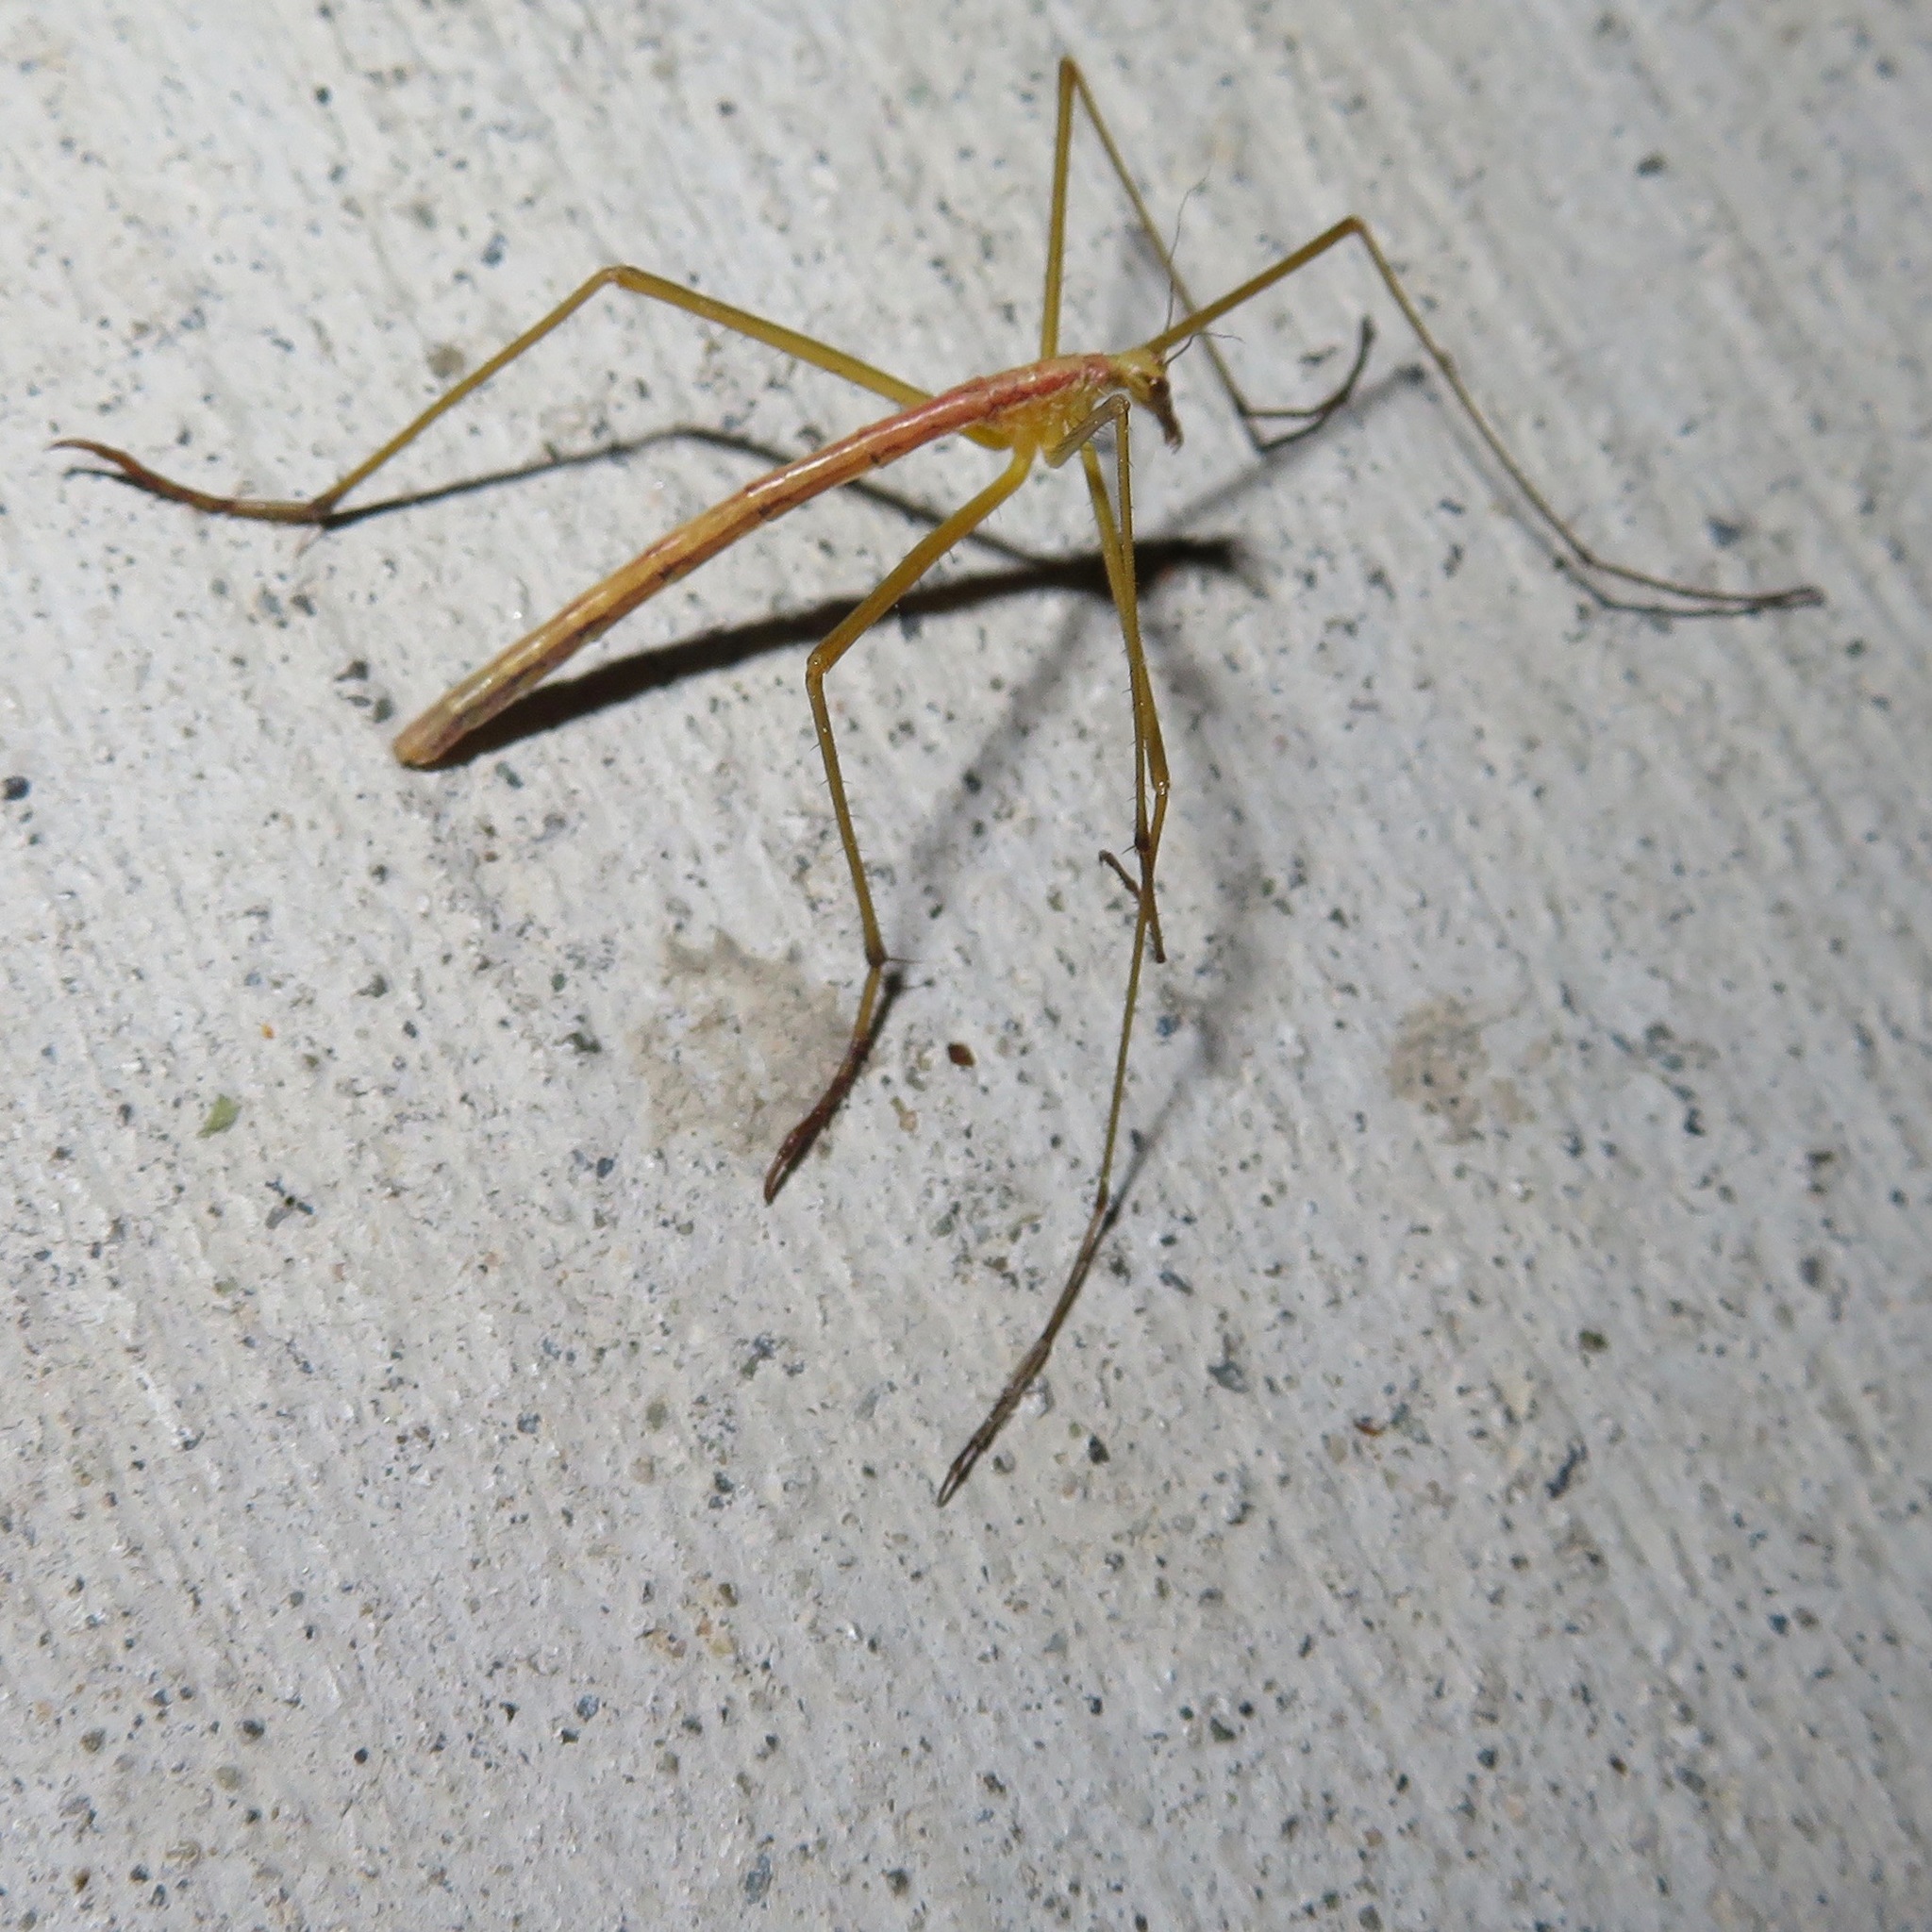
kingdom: Animalia
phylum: Arthropoda
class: Insecta
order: Mecoptera
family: Bittacidae
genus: Apterobittacus
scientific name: Apterobittacus apterus
